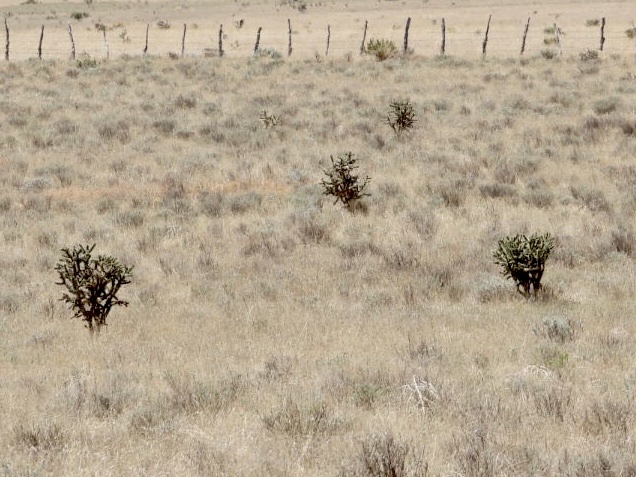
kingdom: Plantae
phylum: Tracheophyta
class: Magnoliopsida
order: Caryophyllales
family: Cactaceae
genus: Cylindropuntia
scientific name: Cylindropuntia imbricata
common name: Candelabrum cactus
